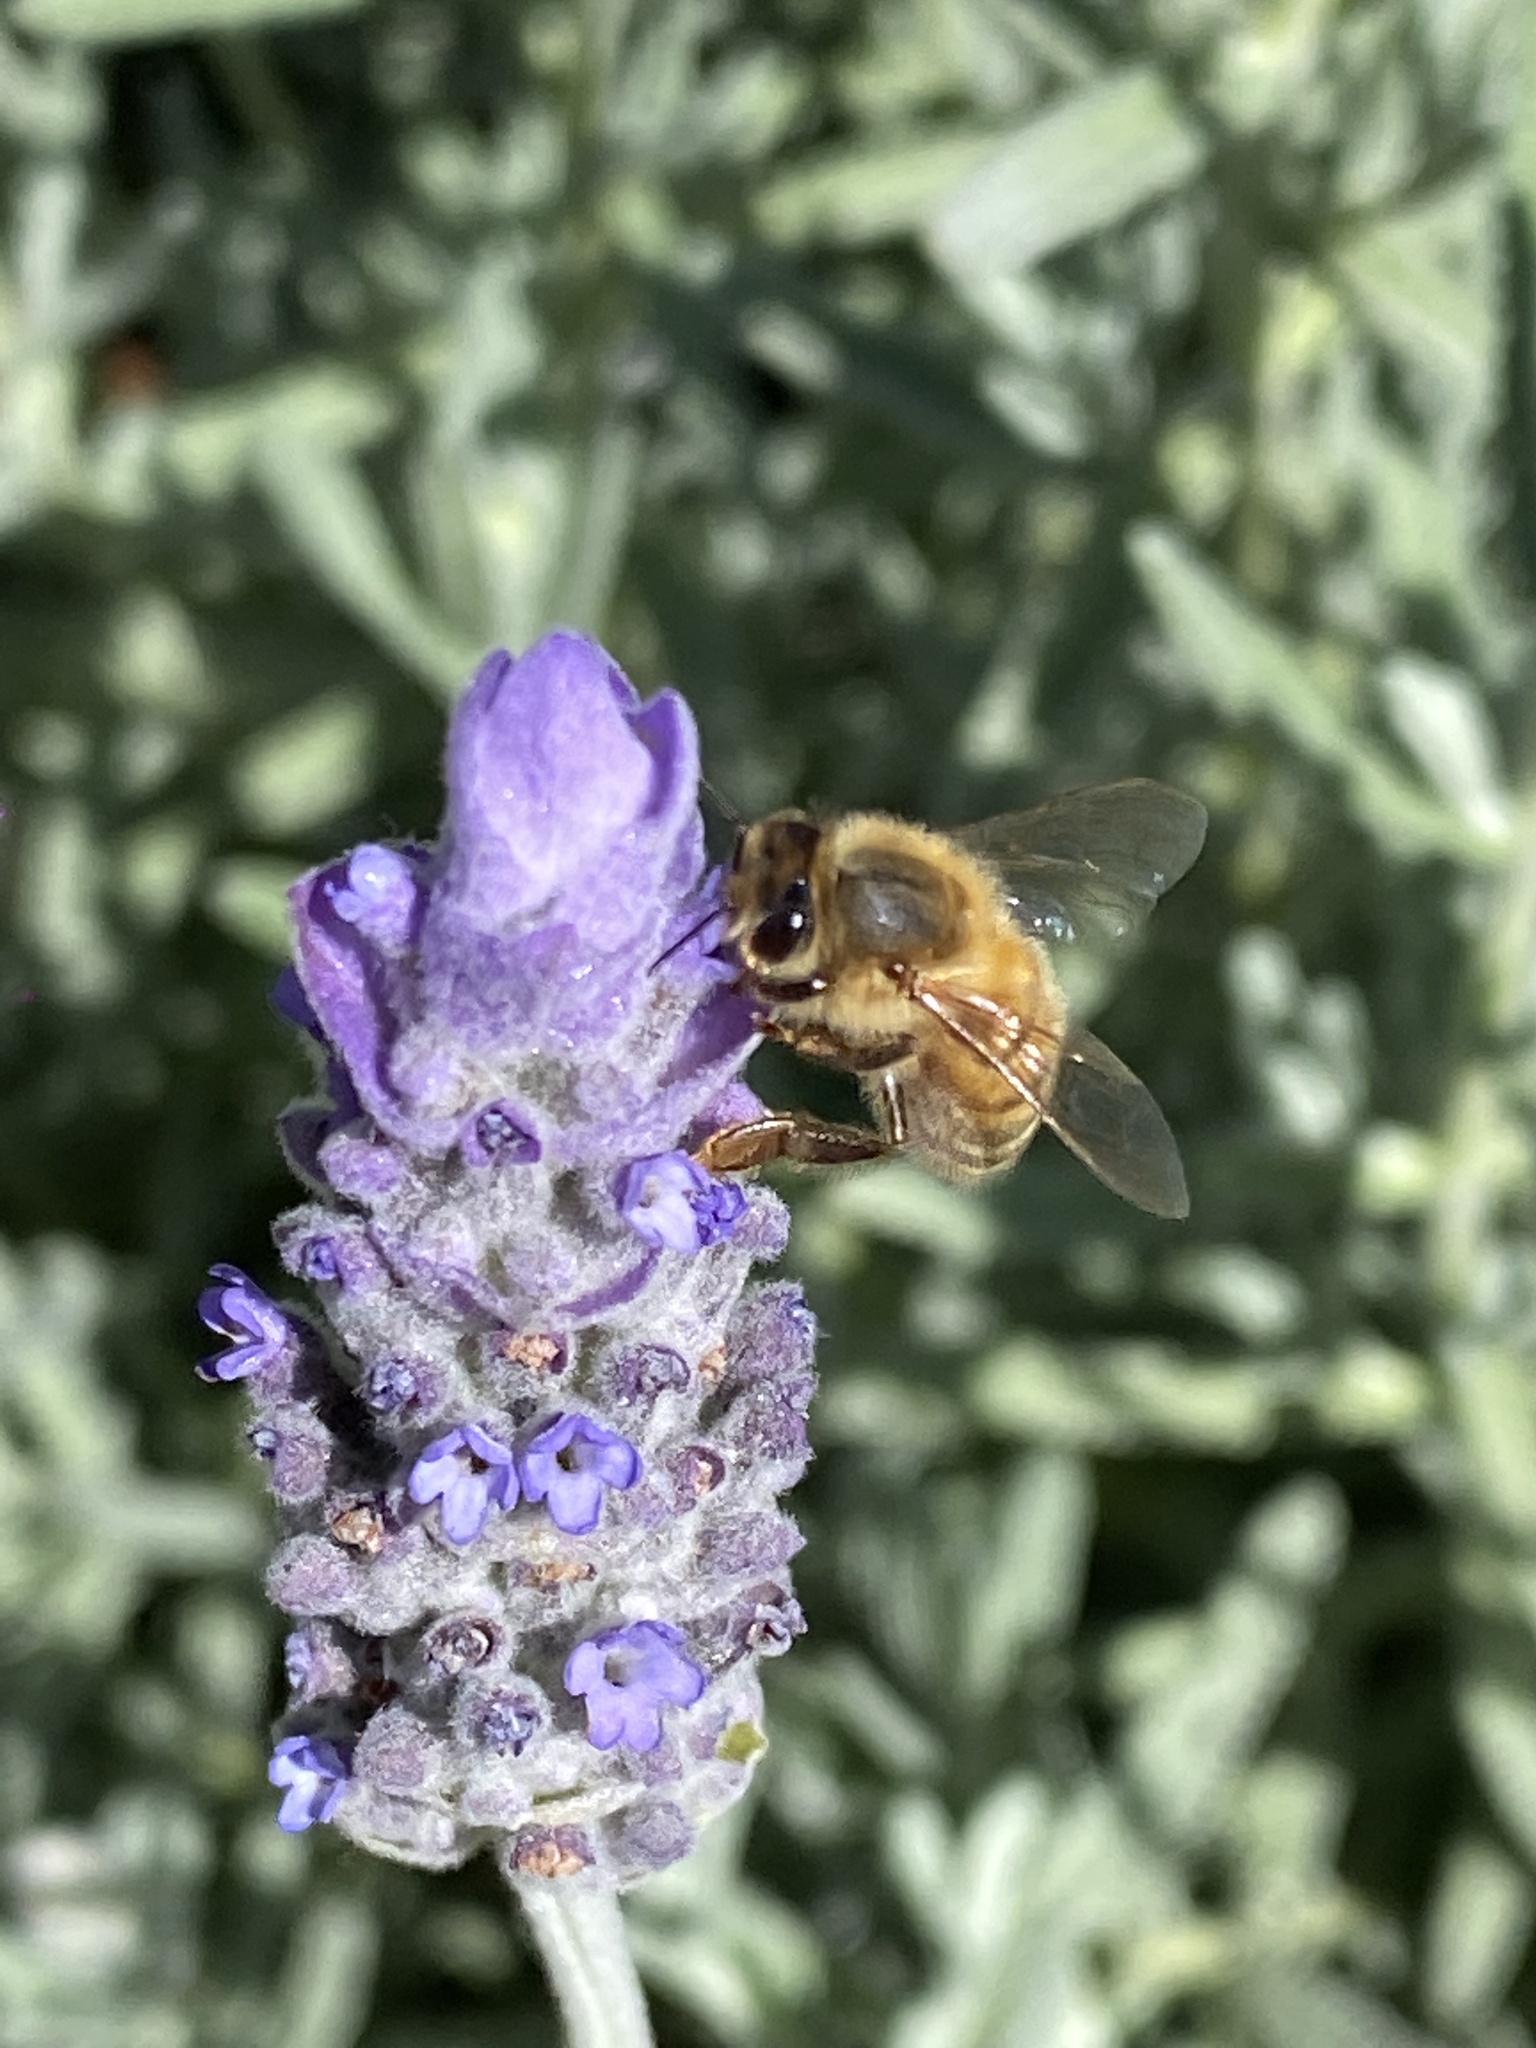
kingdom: Animalia
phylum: Arthropoda
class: Insecta
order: Hymenoptera
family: Apidae
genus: Apis
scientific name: Apis mellifera
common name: Honey bee
